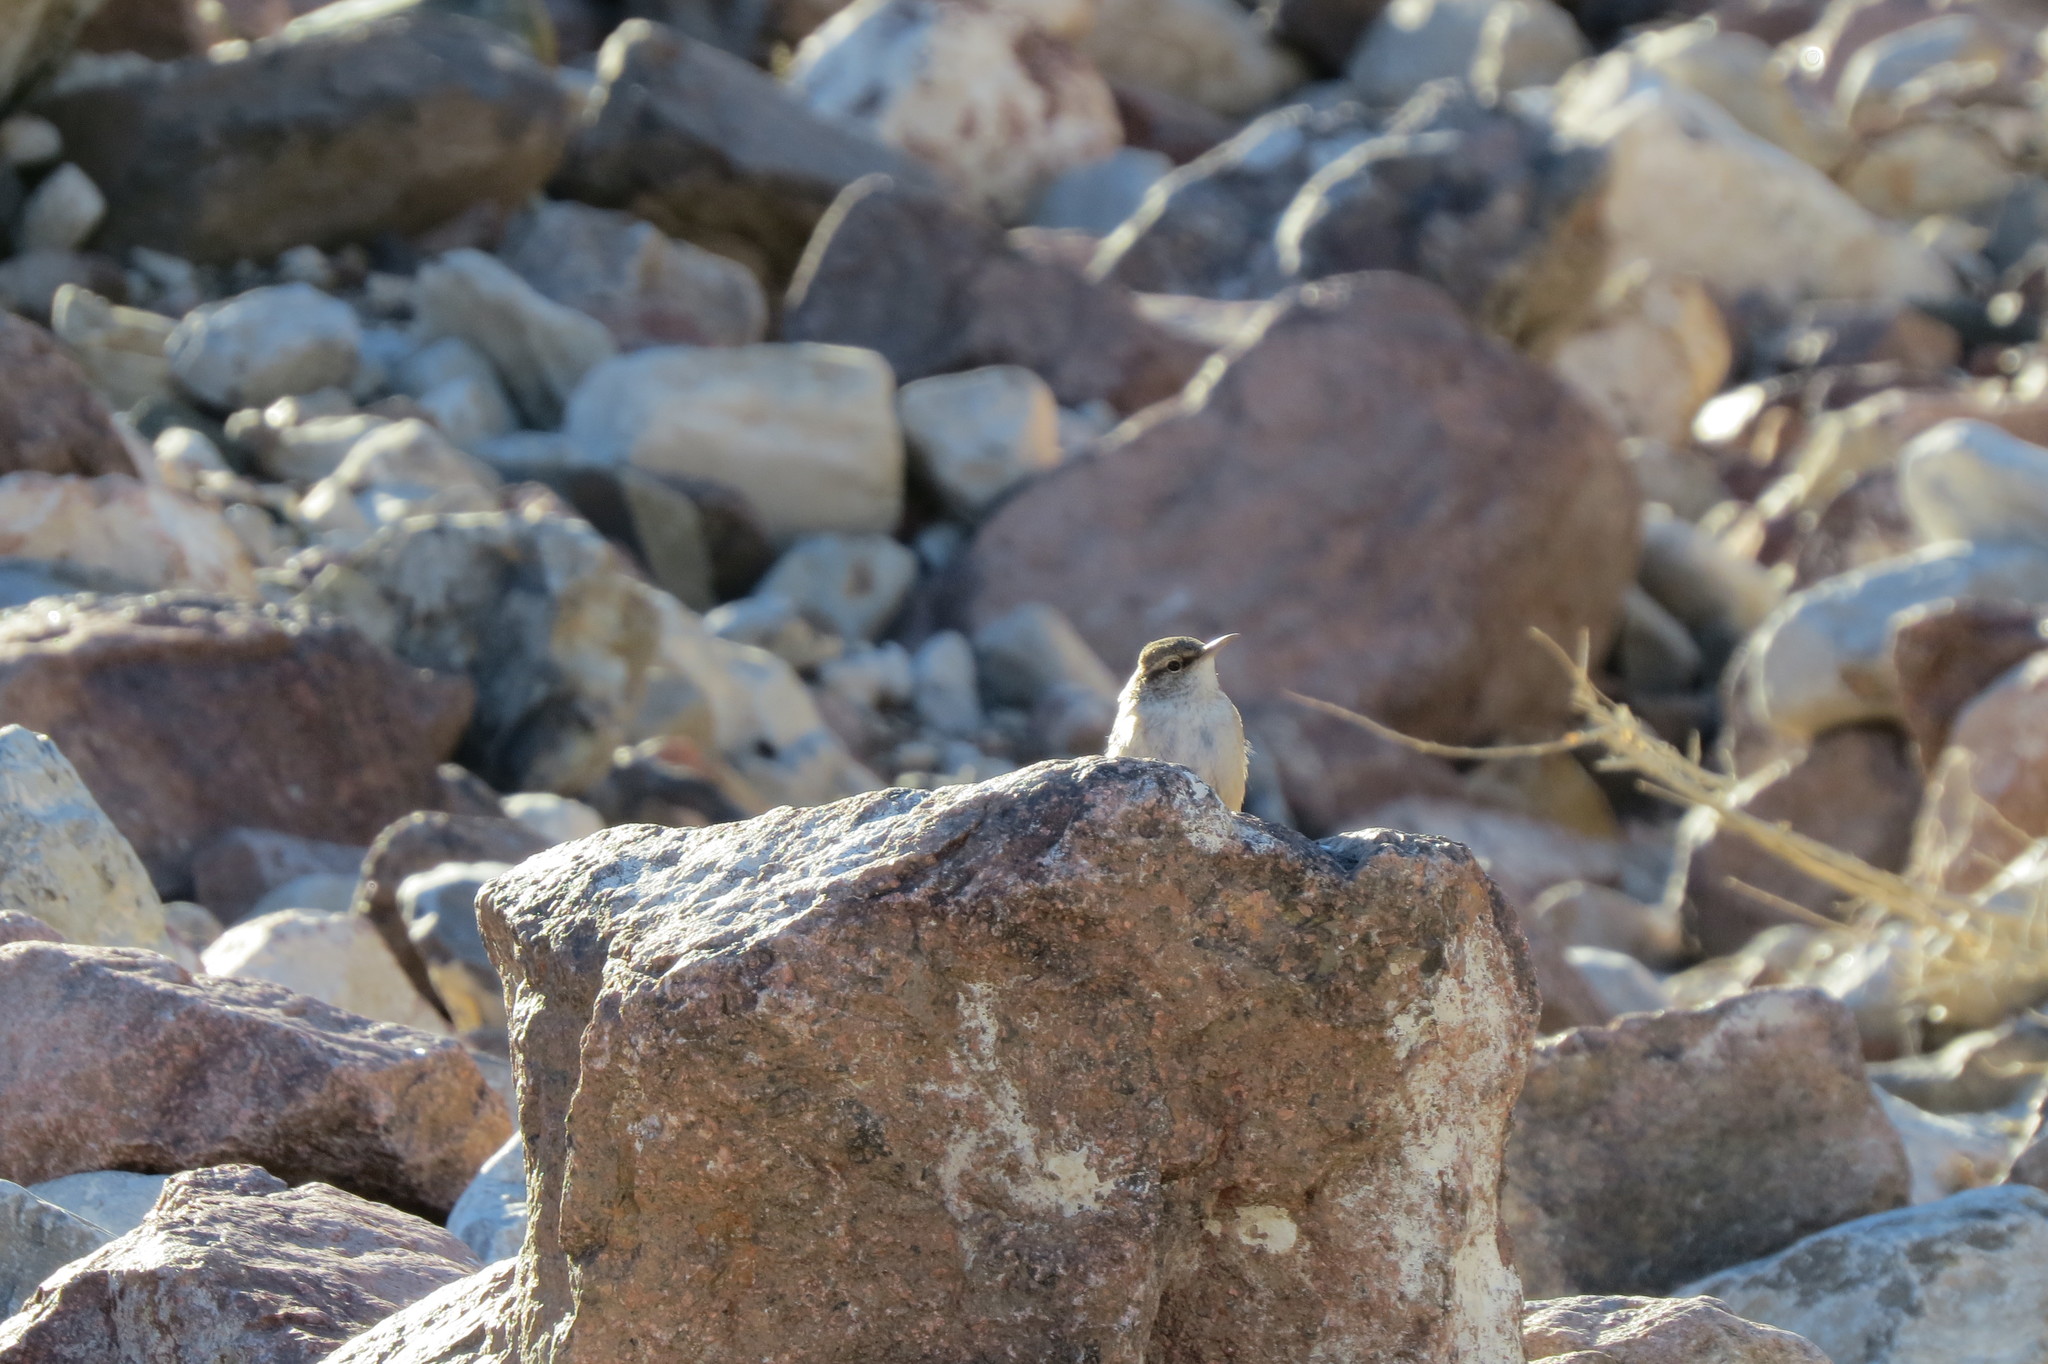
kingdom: Animalia
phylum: Chordata
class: Aves
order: Passeriformes
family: Troglodytidae
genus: Salpinctes
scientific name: Salpinctes obsoletus
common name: Rock wren
